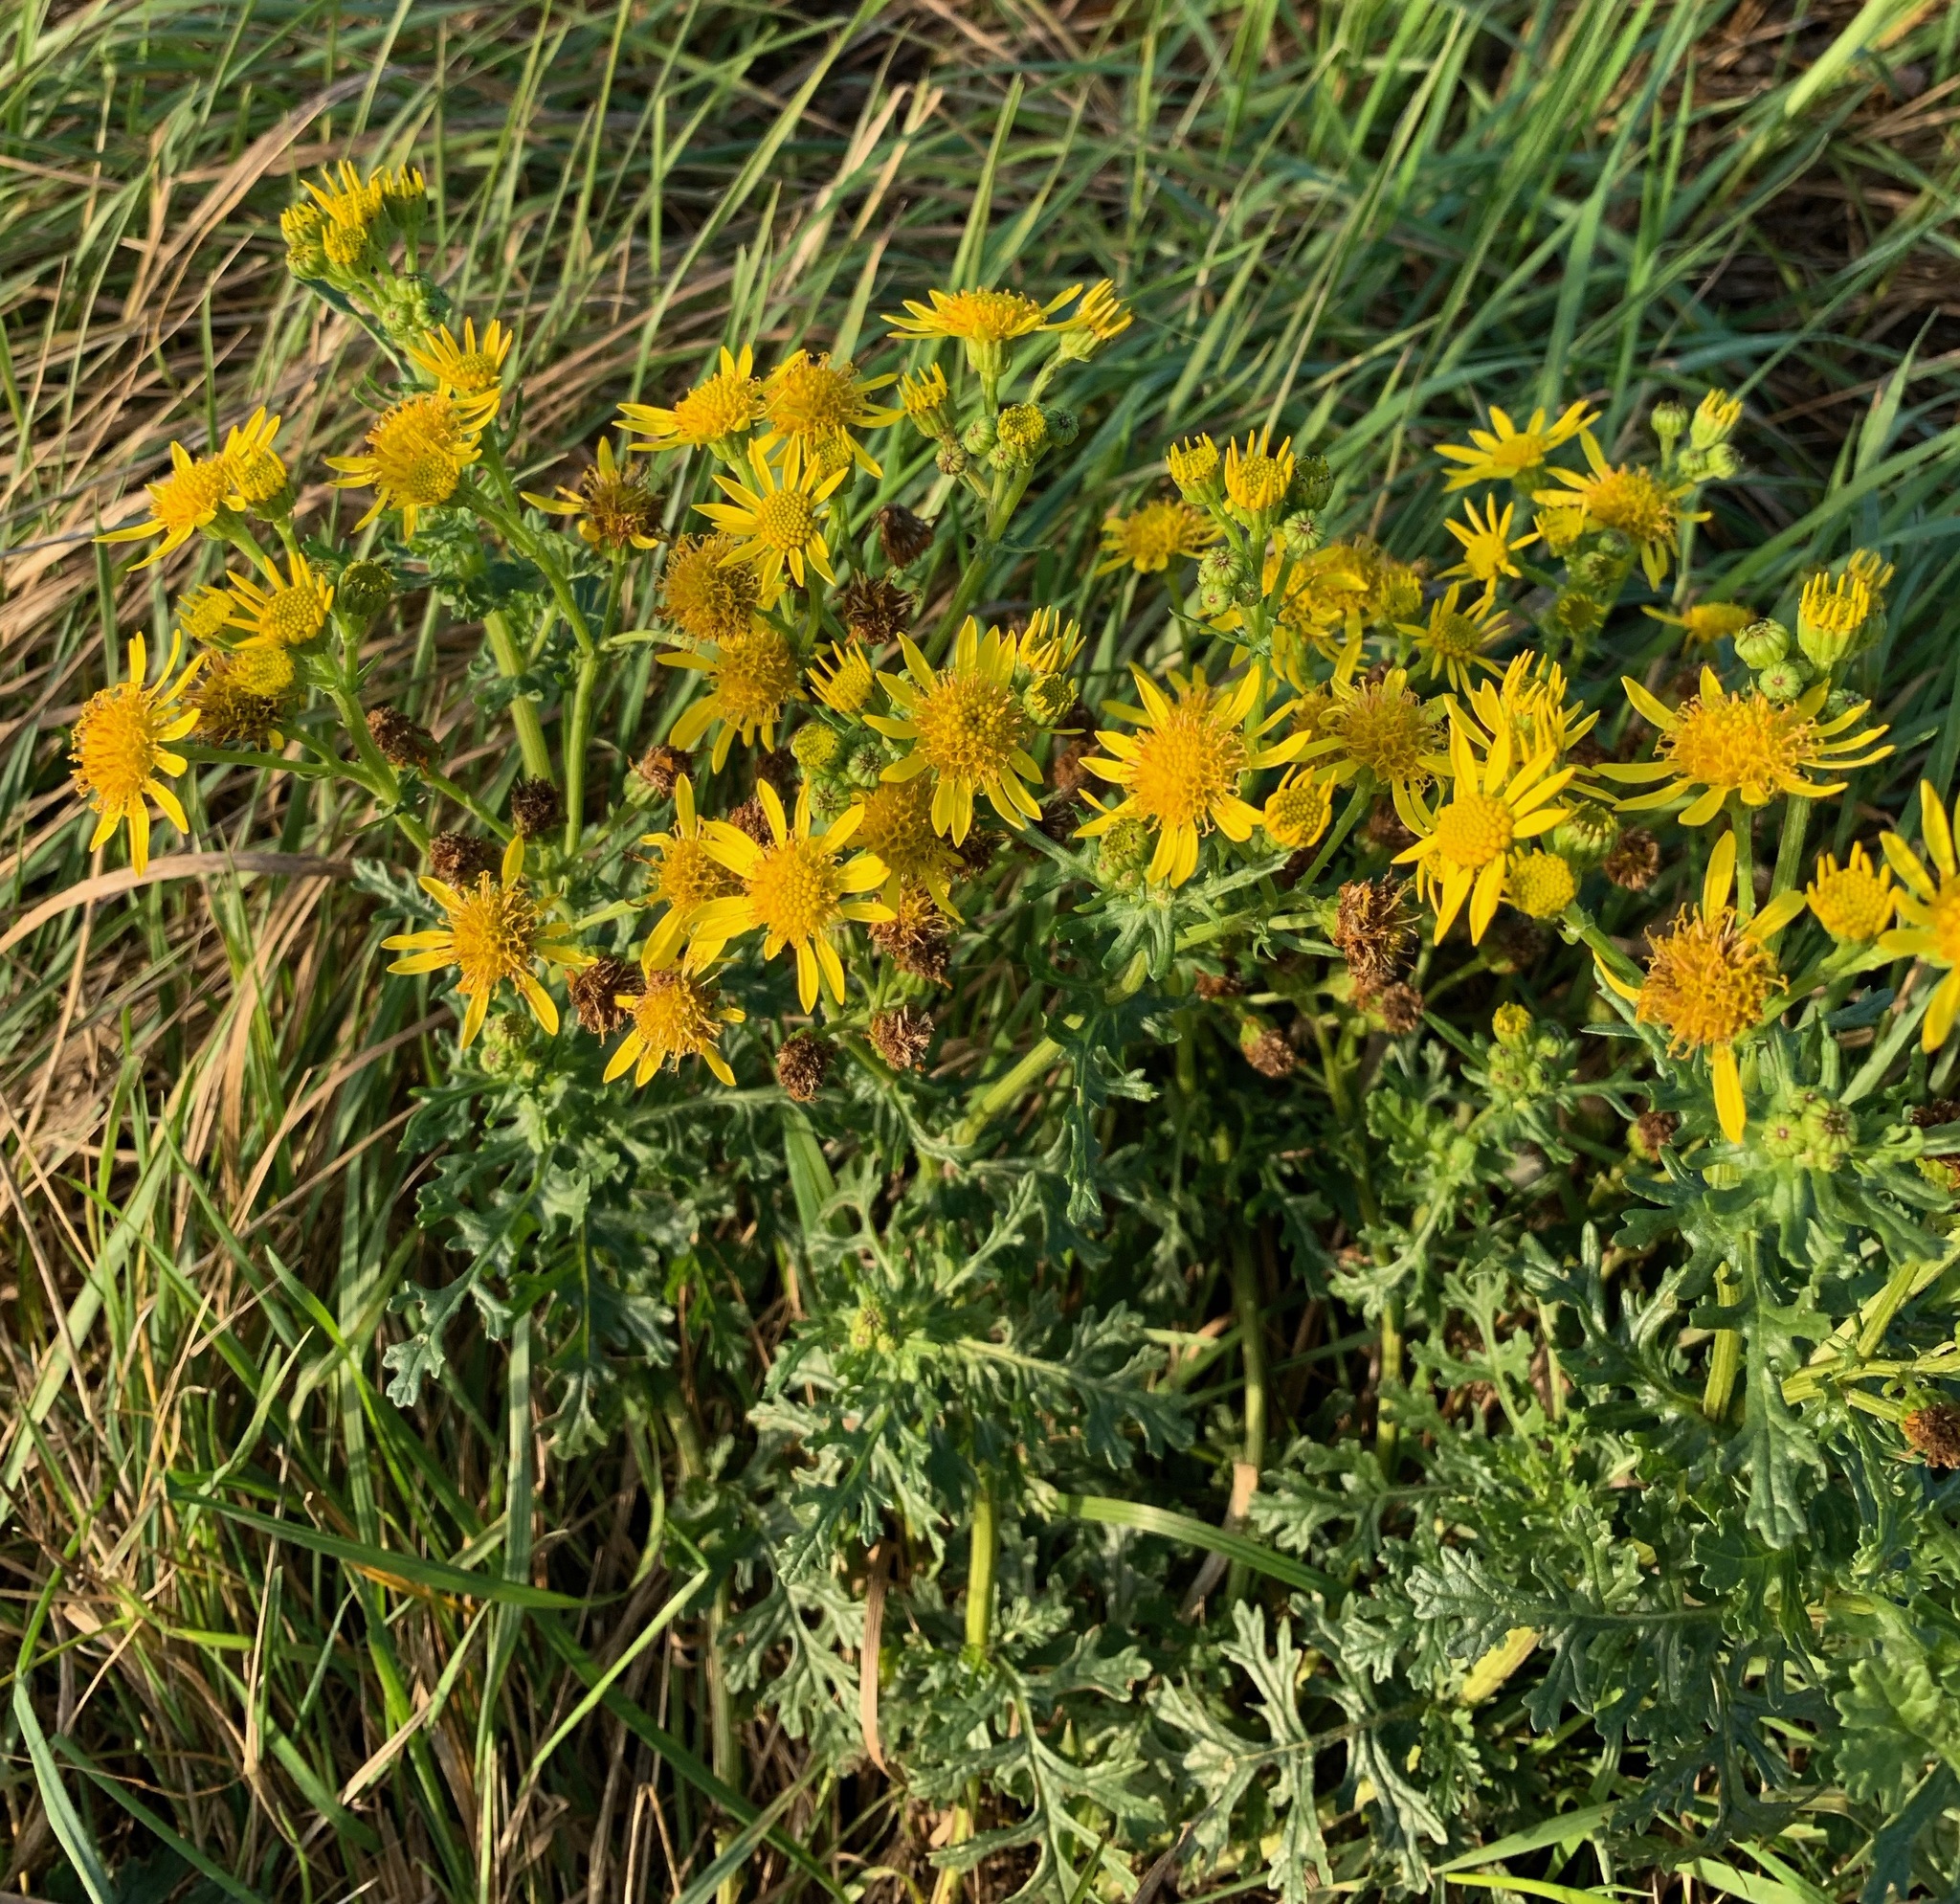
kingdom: Plantae
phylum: Tracheophyta
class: Magnoliopsida
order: Asterales
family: Asteraceae
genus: Jacobaea
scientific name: Jacobaea vulgaris
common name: Stinking willie
